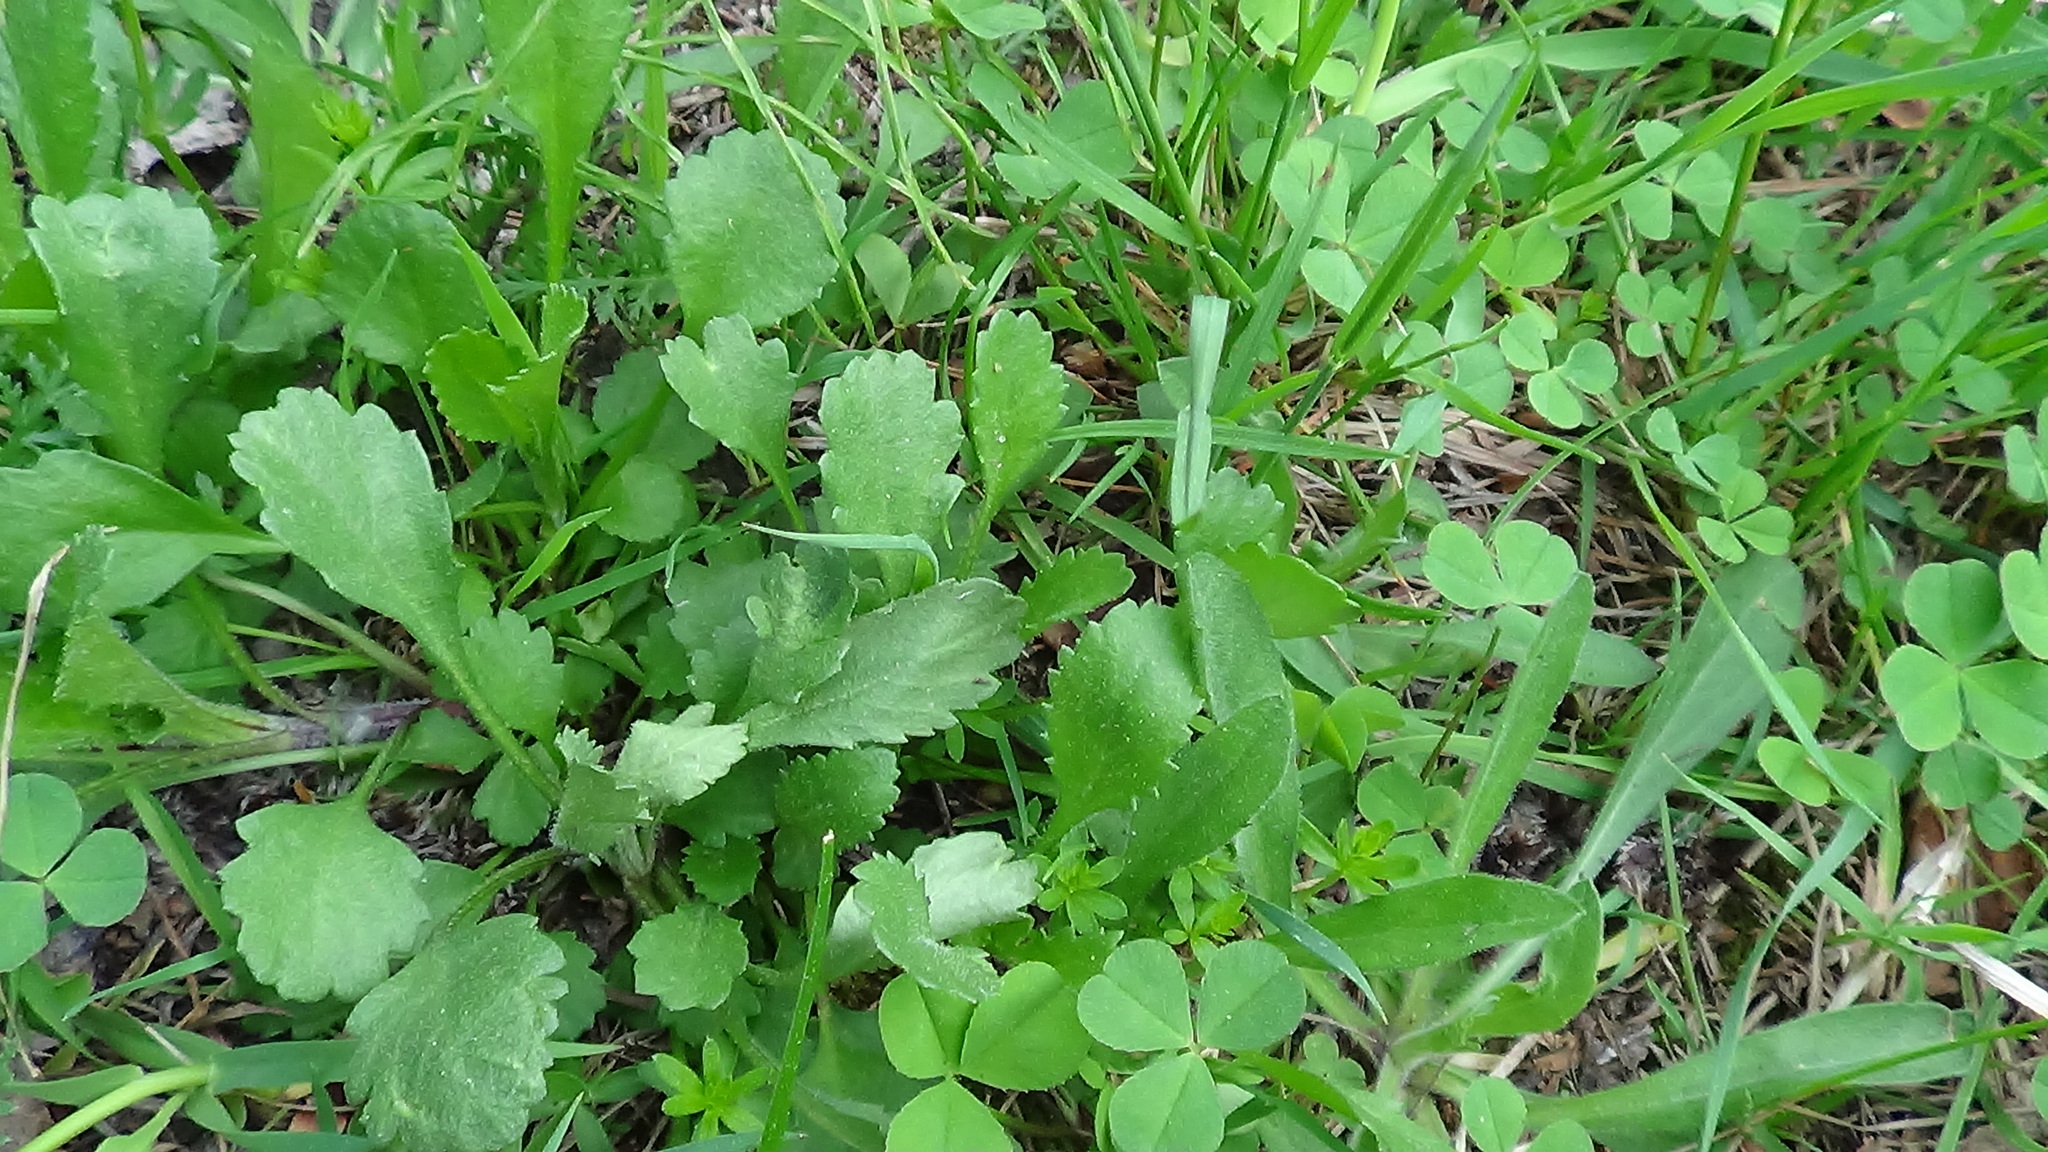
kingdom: Plantae
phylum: Tracheophyta
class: Magnoliopsida
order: Asterales
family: Asteraceae
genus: Leucanthemum
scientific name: Leucanthemum ircutianum
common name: Daisy
